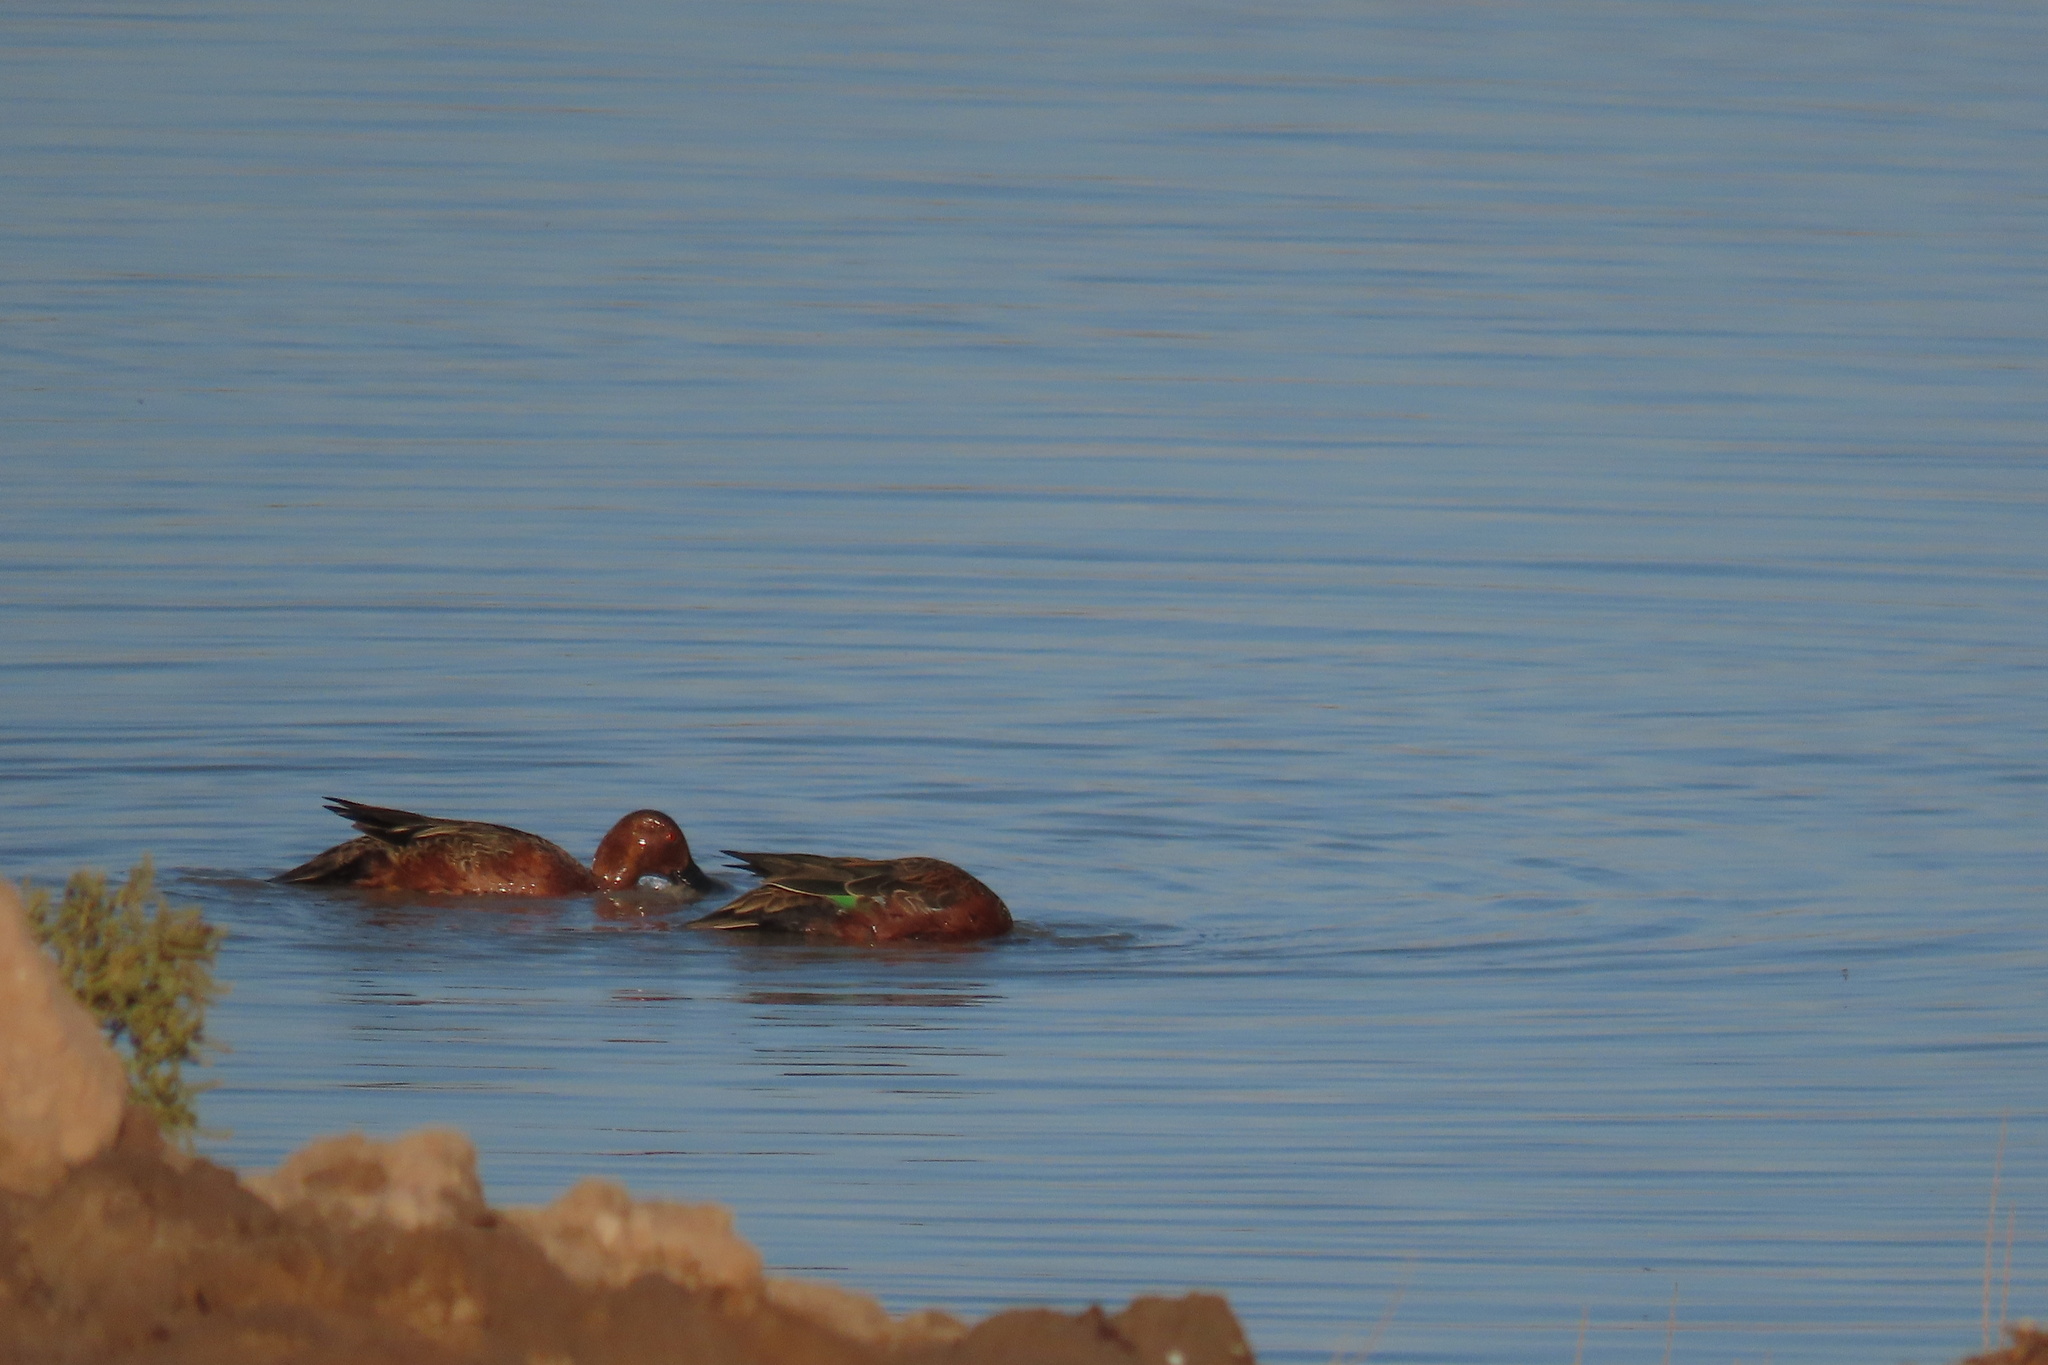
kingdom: Animalia
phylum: Chordata
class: Aves
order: Anseriformes
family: Anatidae
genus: Spatula
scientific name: Spatula cyanoptera
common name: Cinnamon teal
